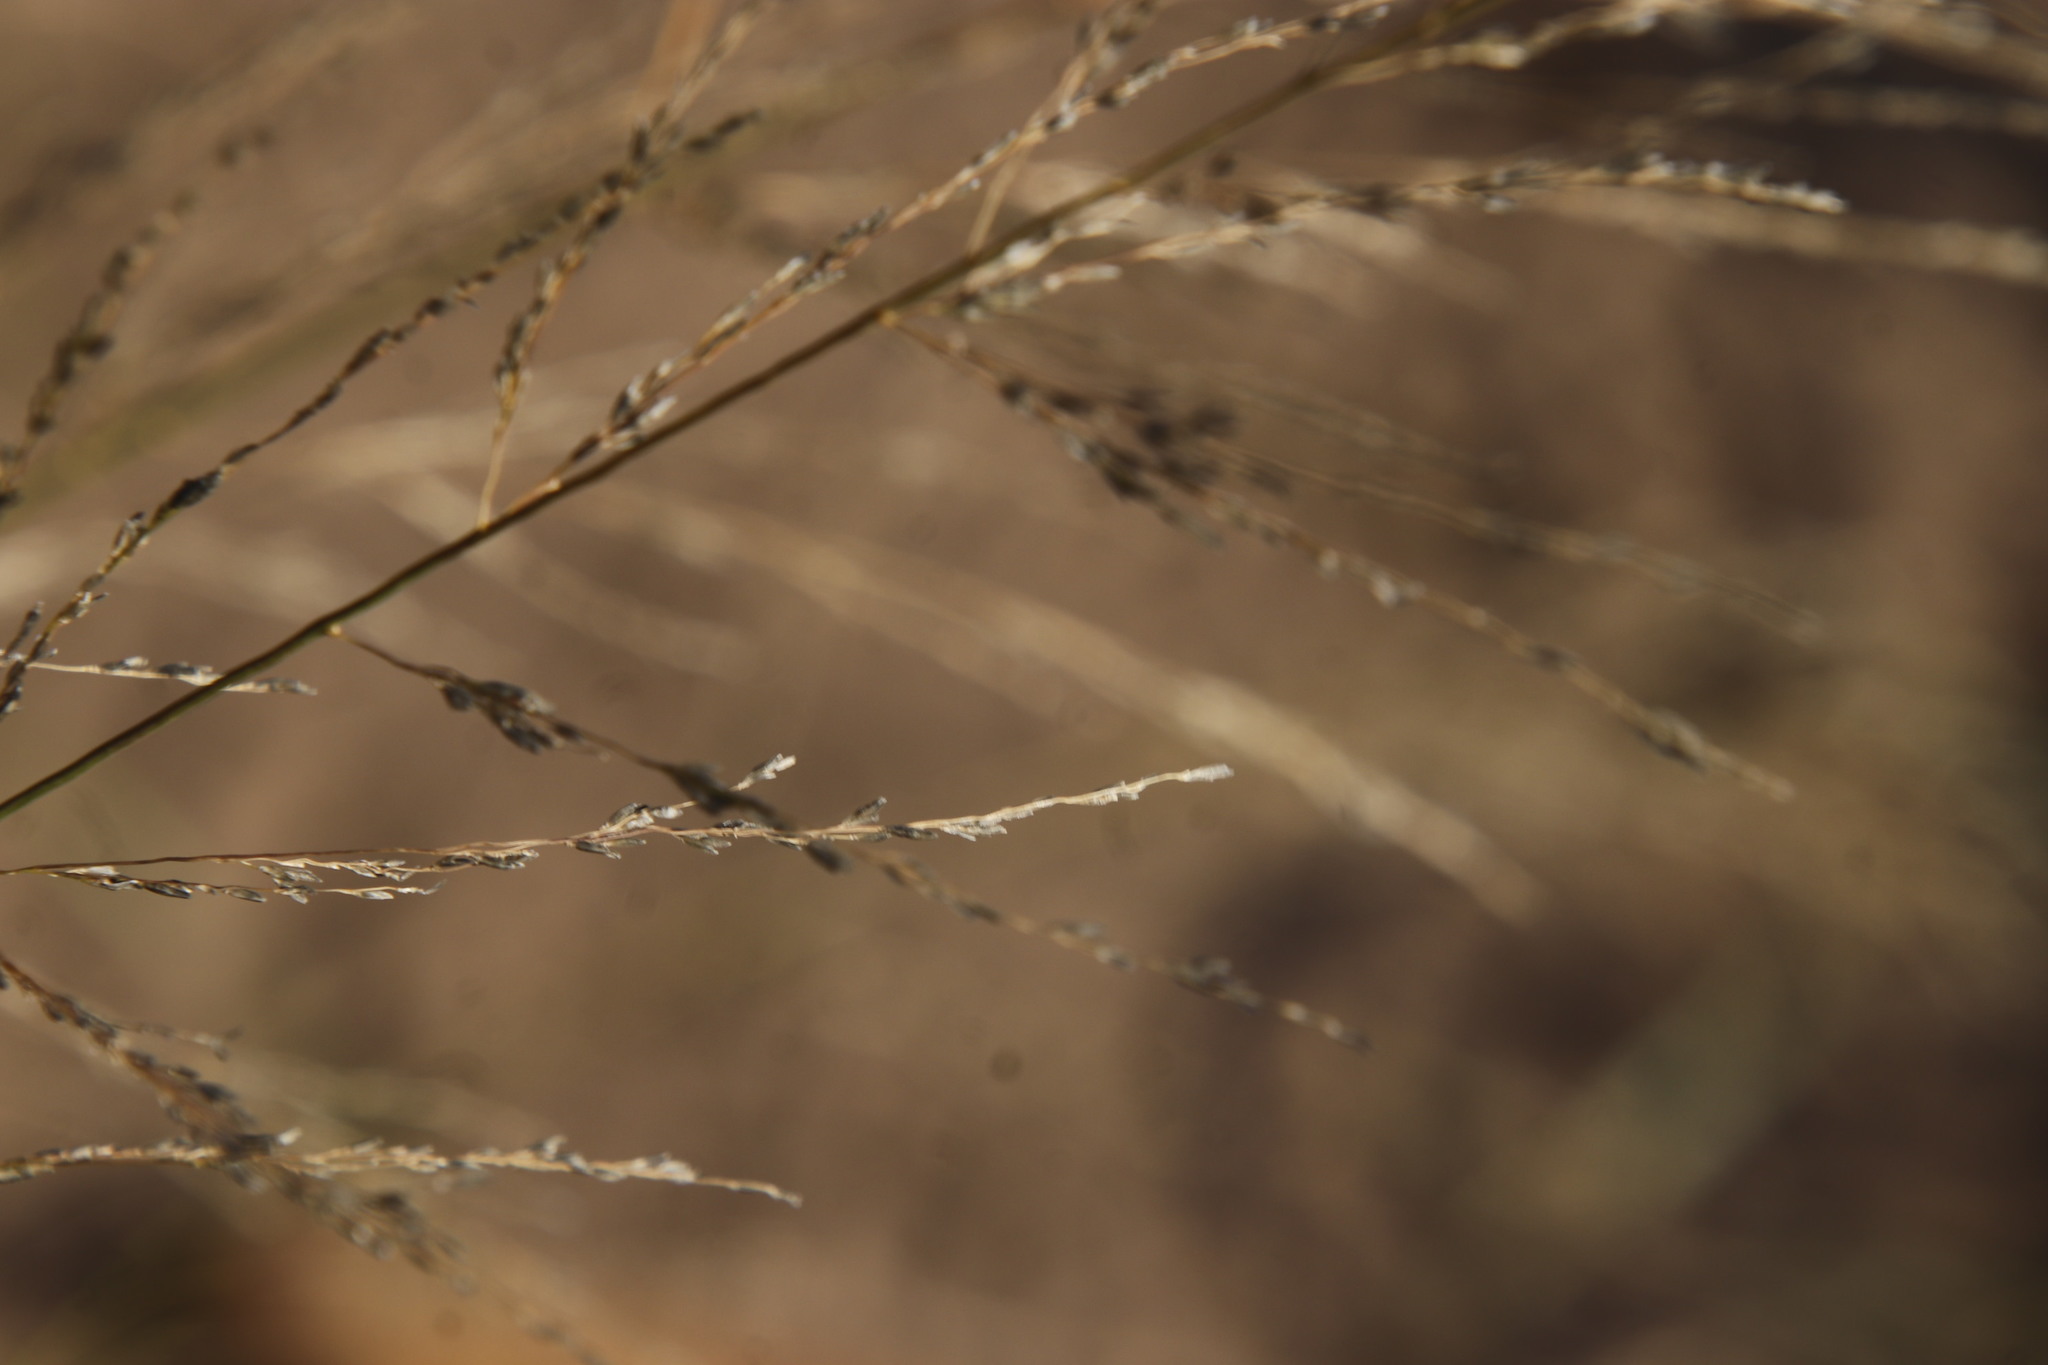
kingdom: Plantae
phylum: Tracheophyta
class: Liliopsida
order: Poales
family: Poaceae
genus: Eragrostis
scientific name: Eragrostis curvula
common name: African love-grass
